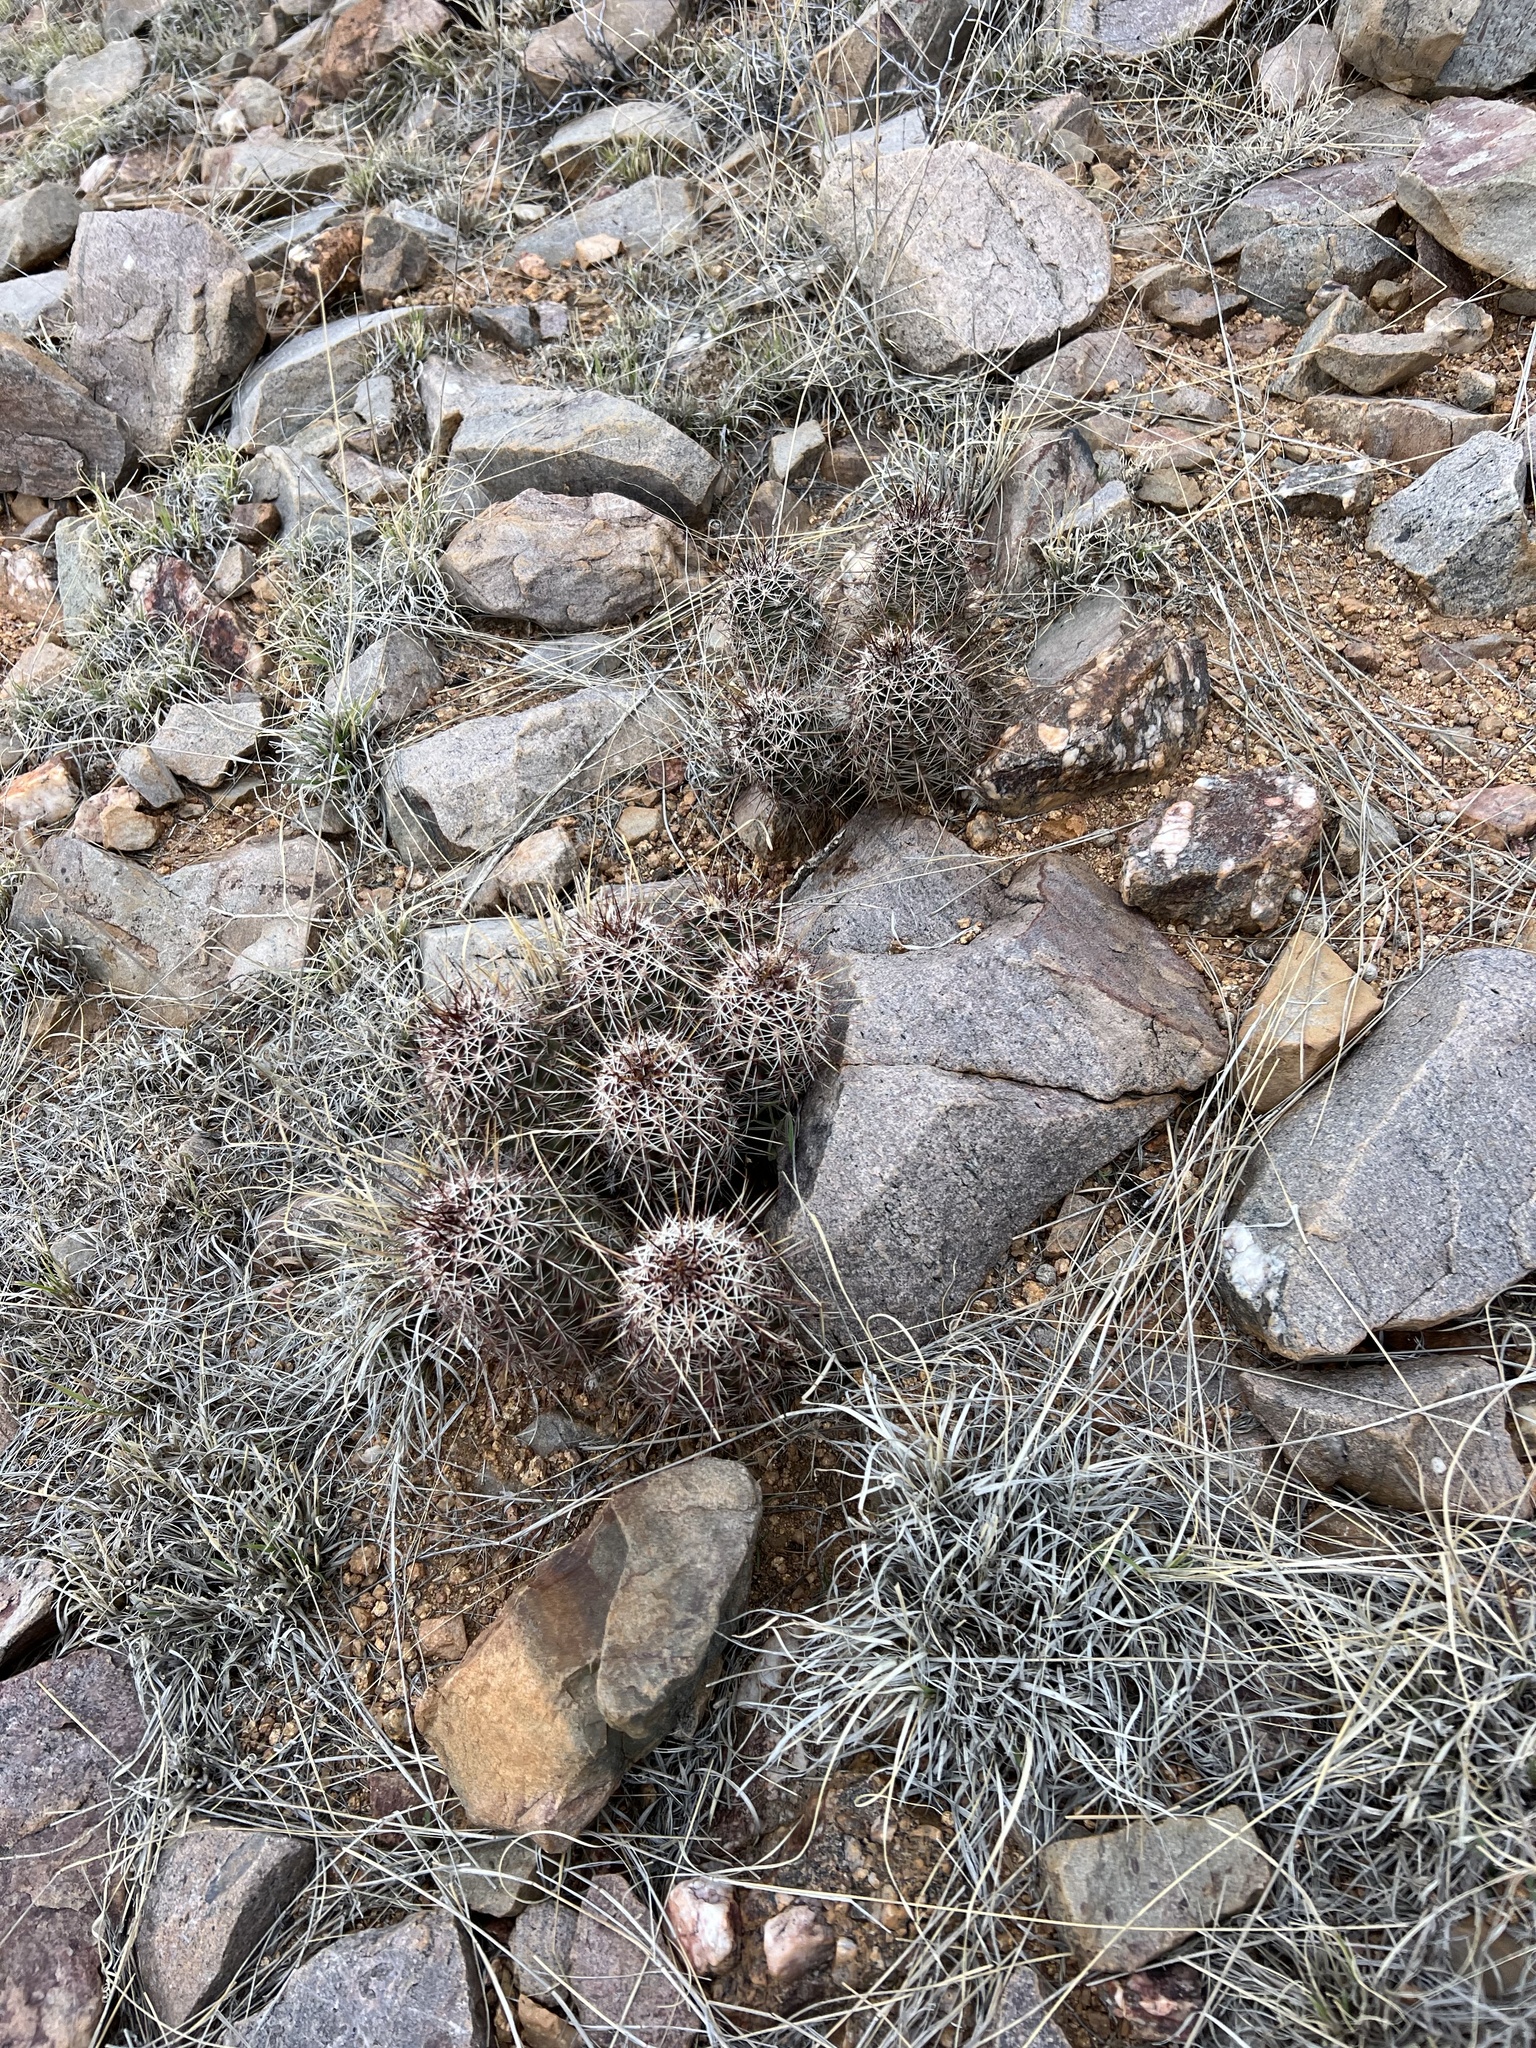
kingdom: Plantae
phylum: Tracheophyta
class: Magnoliopsida
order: Caryophyllales
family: Cactaceae
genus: Echinocereus
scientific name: Echinocereus fasciculatus
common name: Bundle hedgehog
